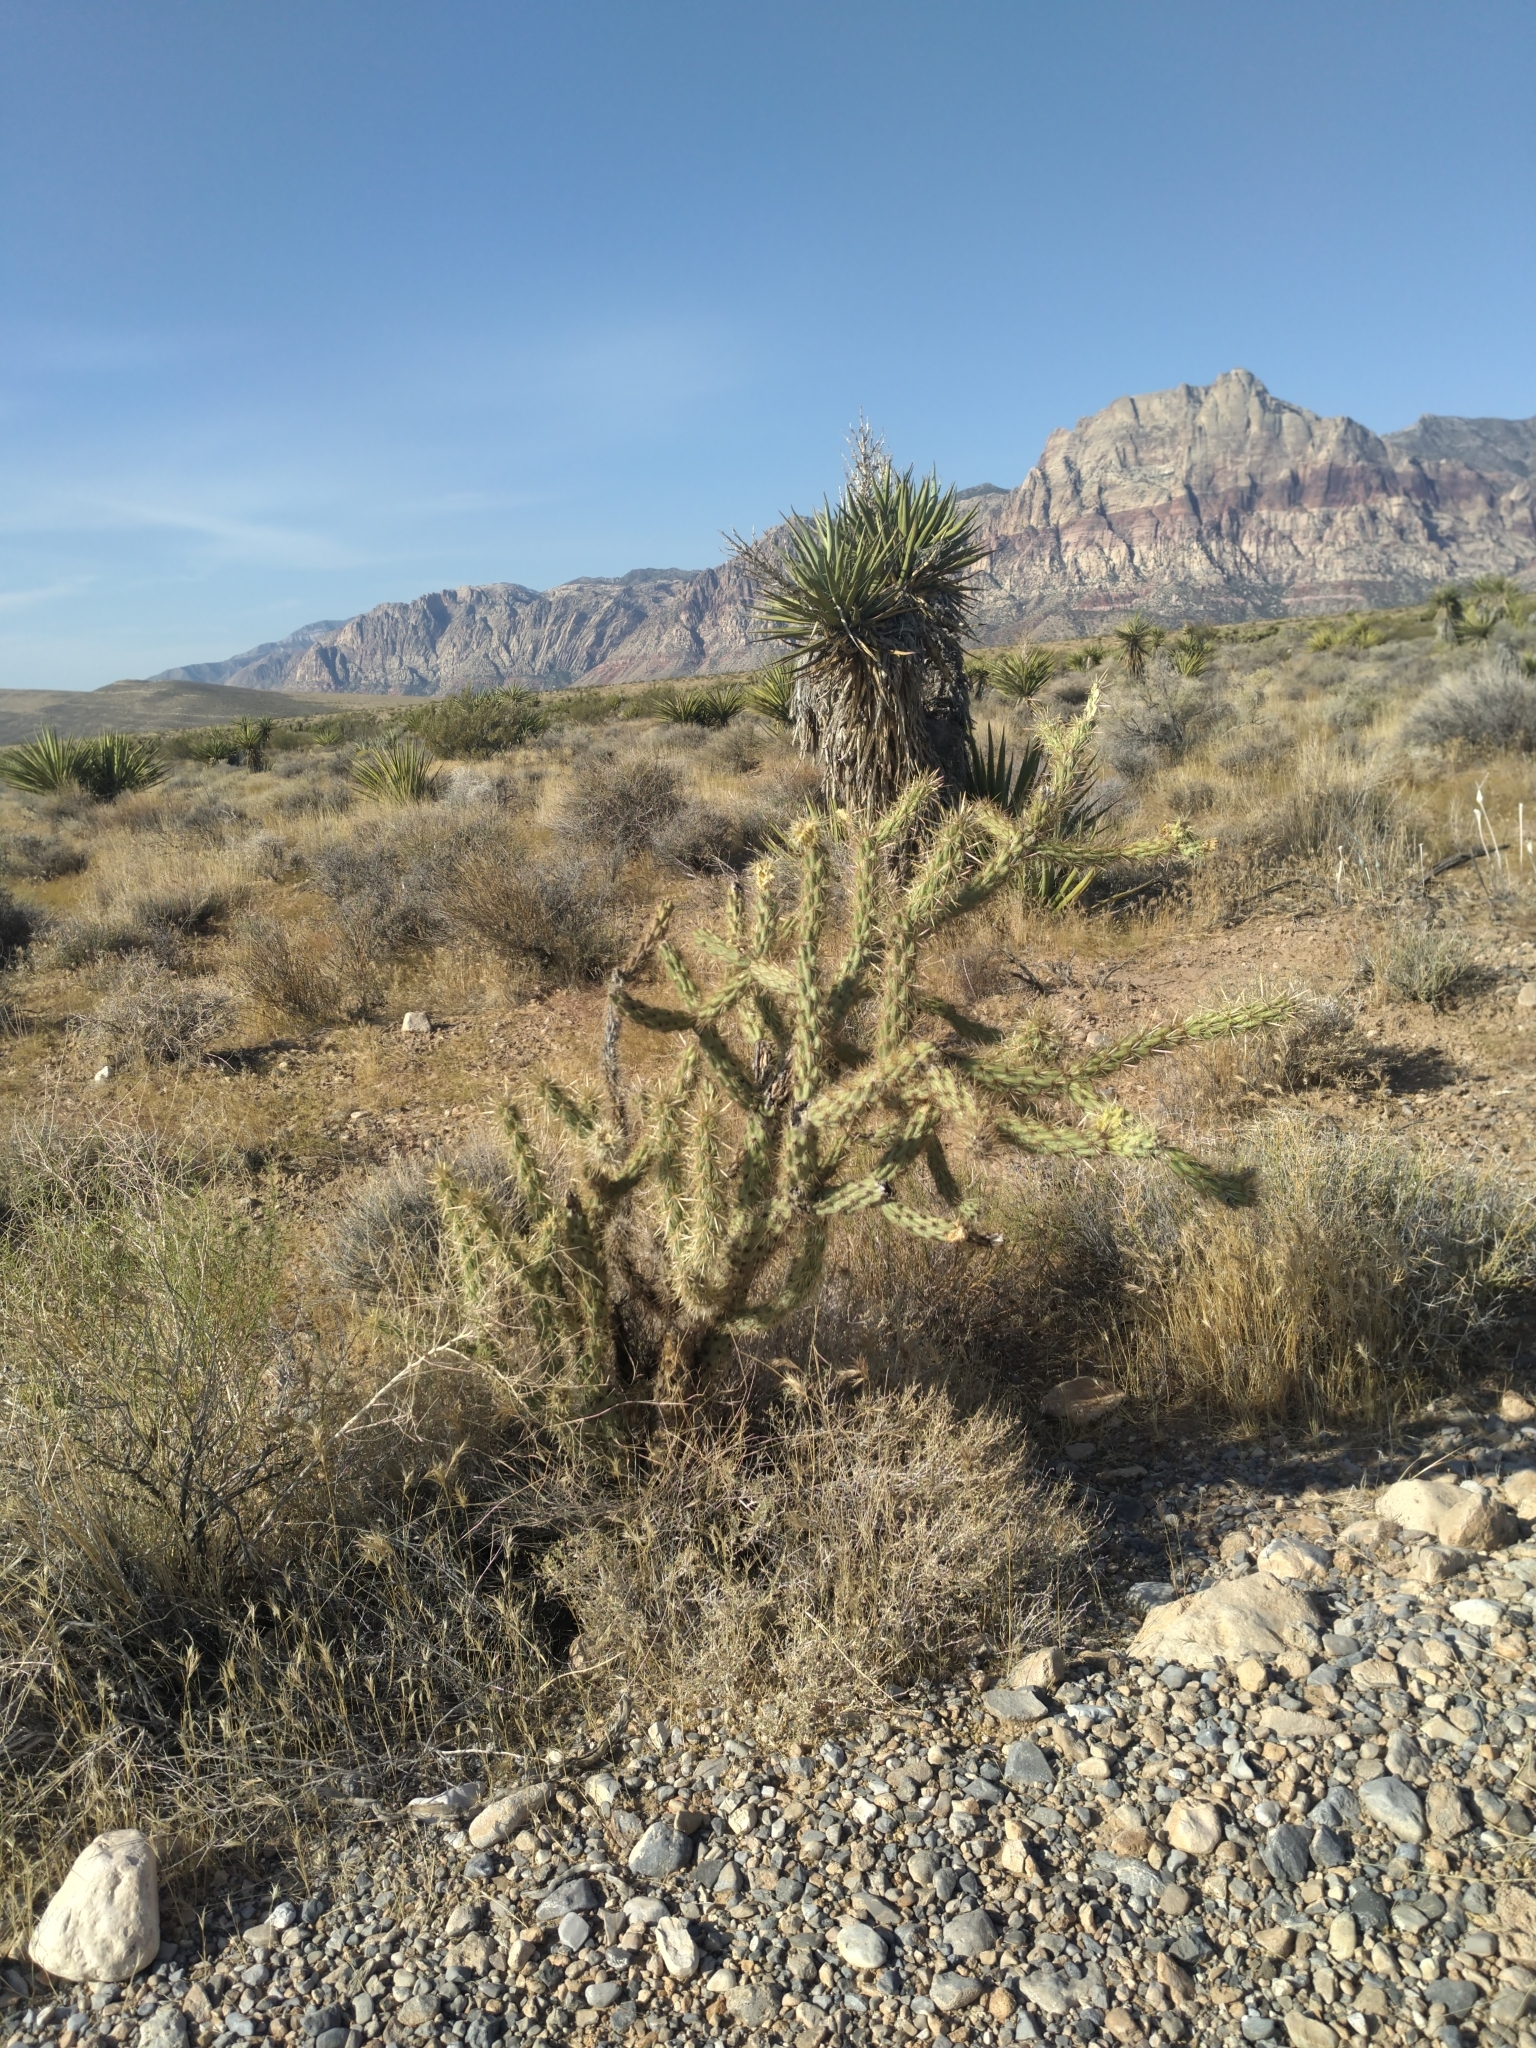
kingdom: Plantae
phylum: Tracheophyta
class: Magnoliopsida
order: Caryophyllales
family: Cactaceae
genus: Cylindropuntia
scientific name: Cylindropuntia acanthocarpa
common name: Buckhorn cholla
